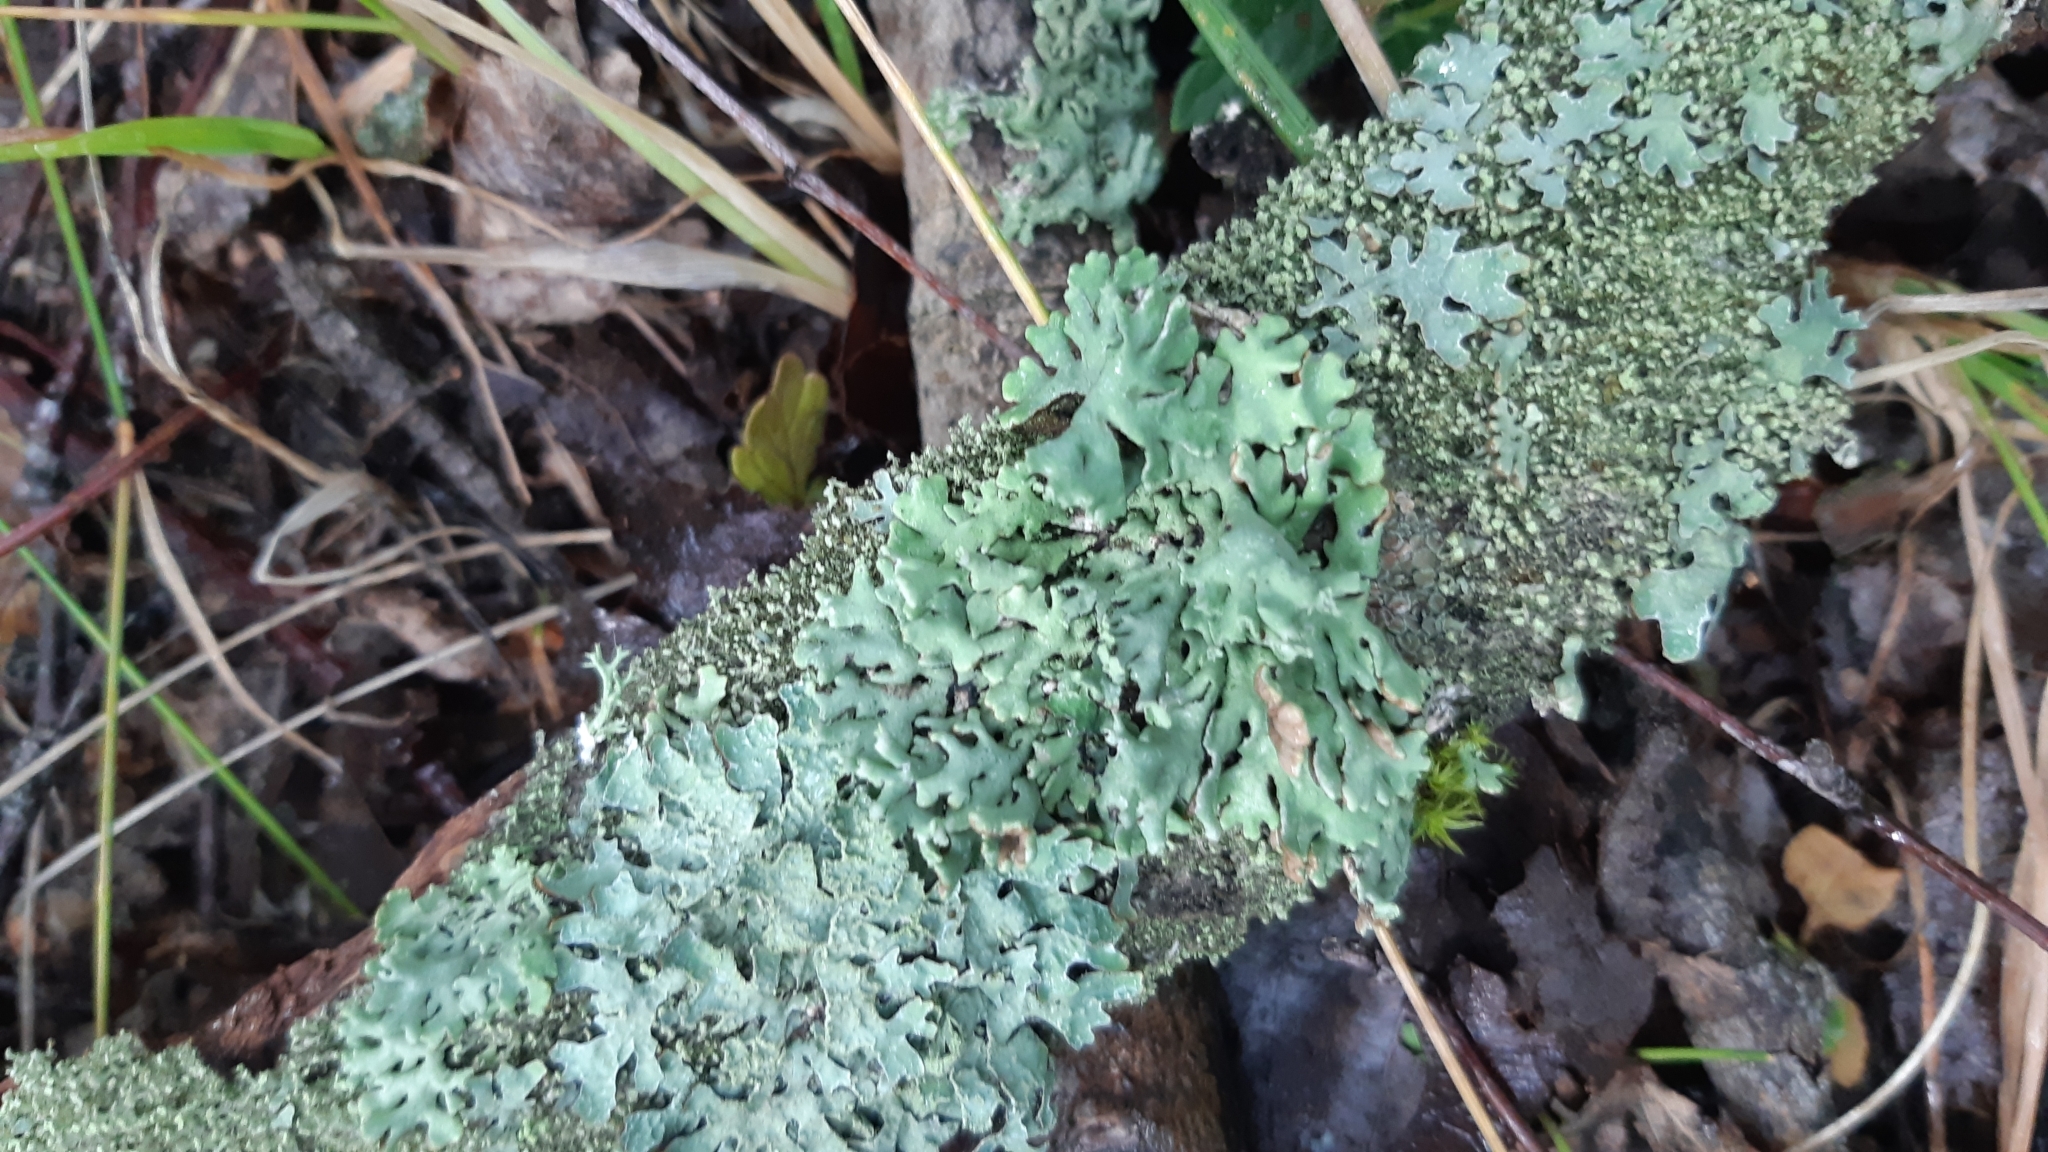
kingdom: Fungi
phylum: Ascomycota
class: Lecanoromycetes
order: Lecanorales
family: Parmeliaceae
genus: Hypogymnia
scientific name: Hypogymnia physodes
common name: Dark crottle
